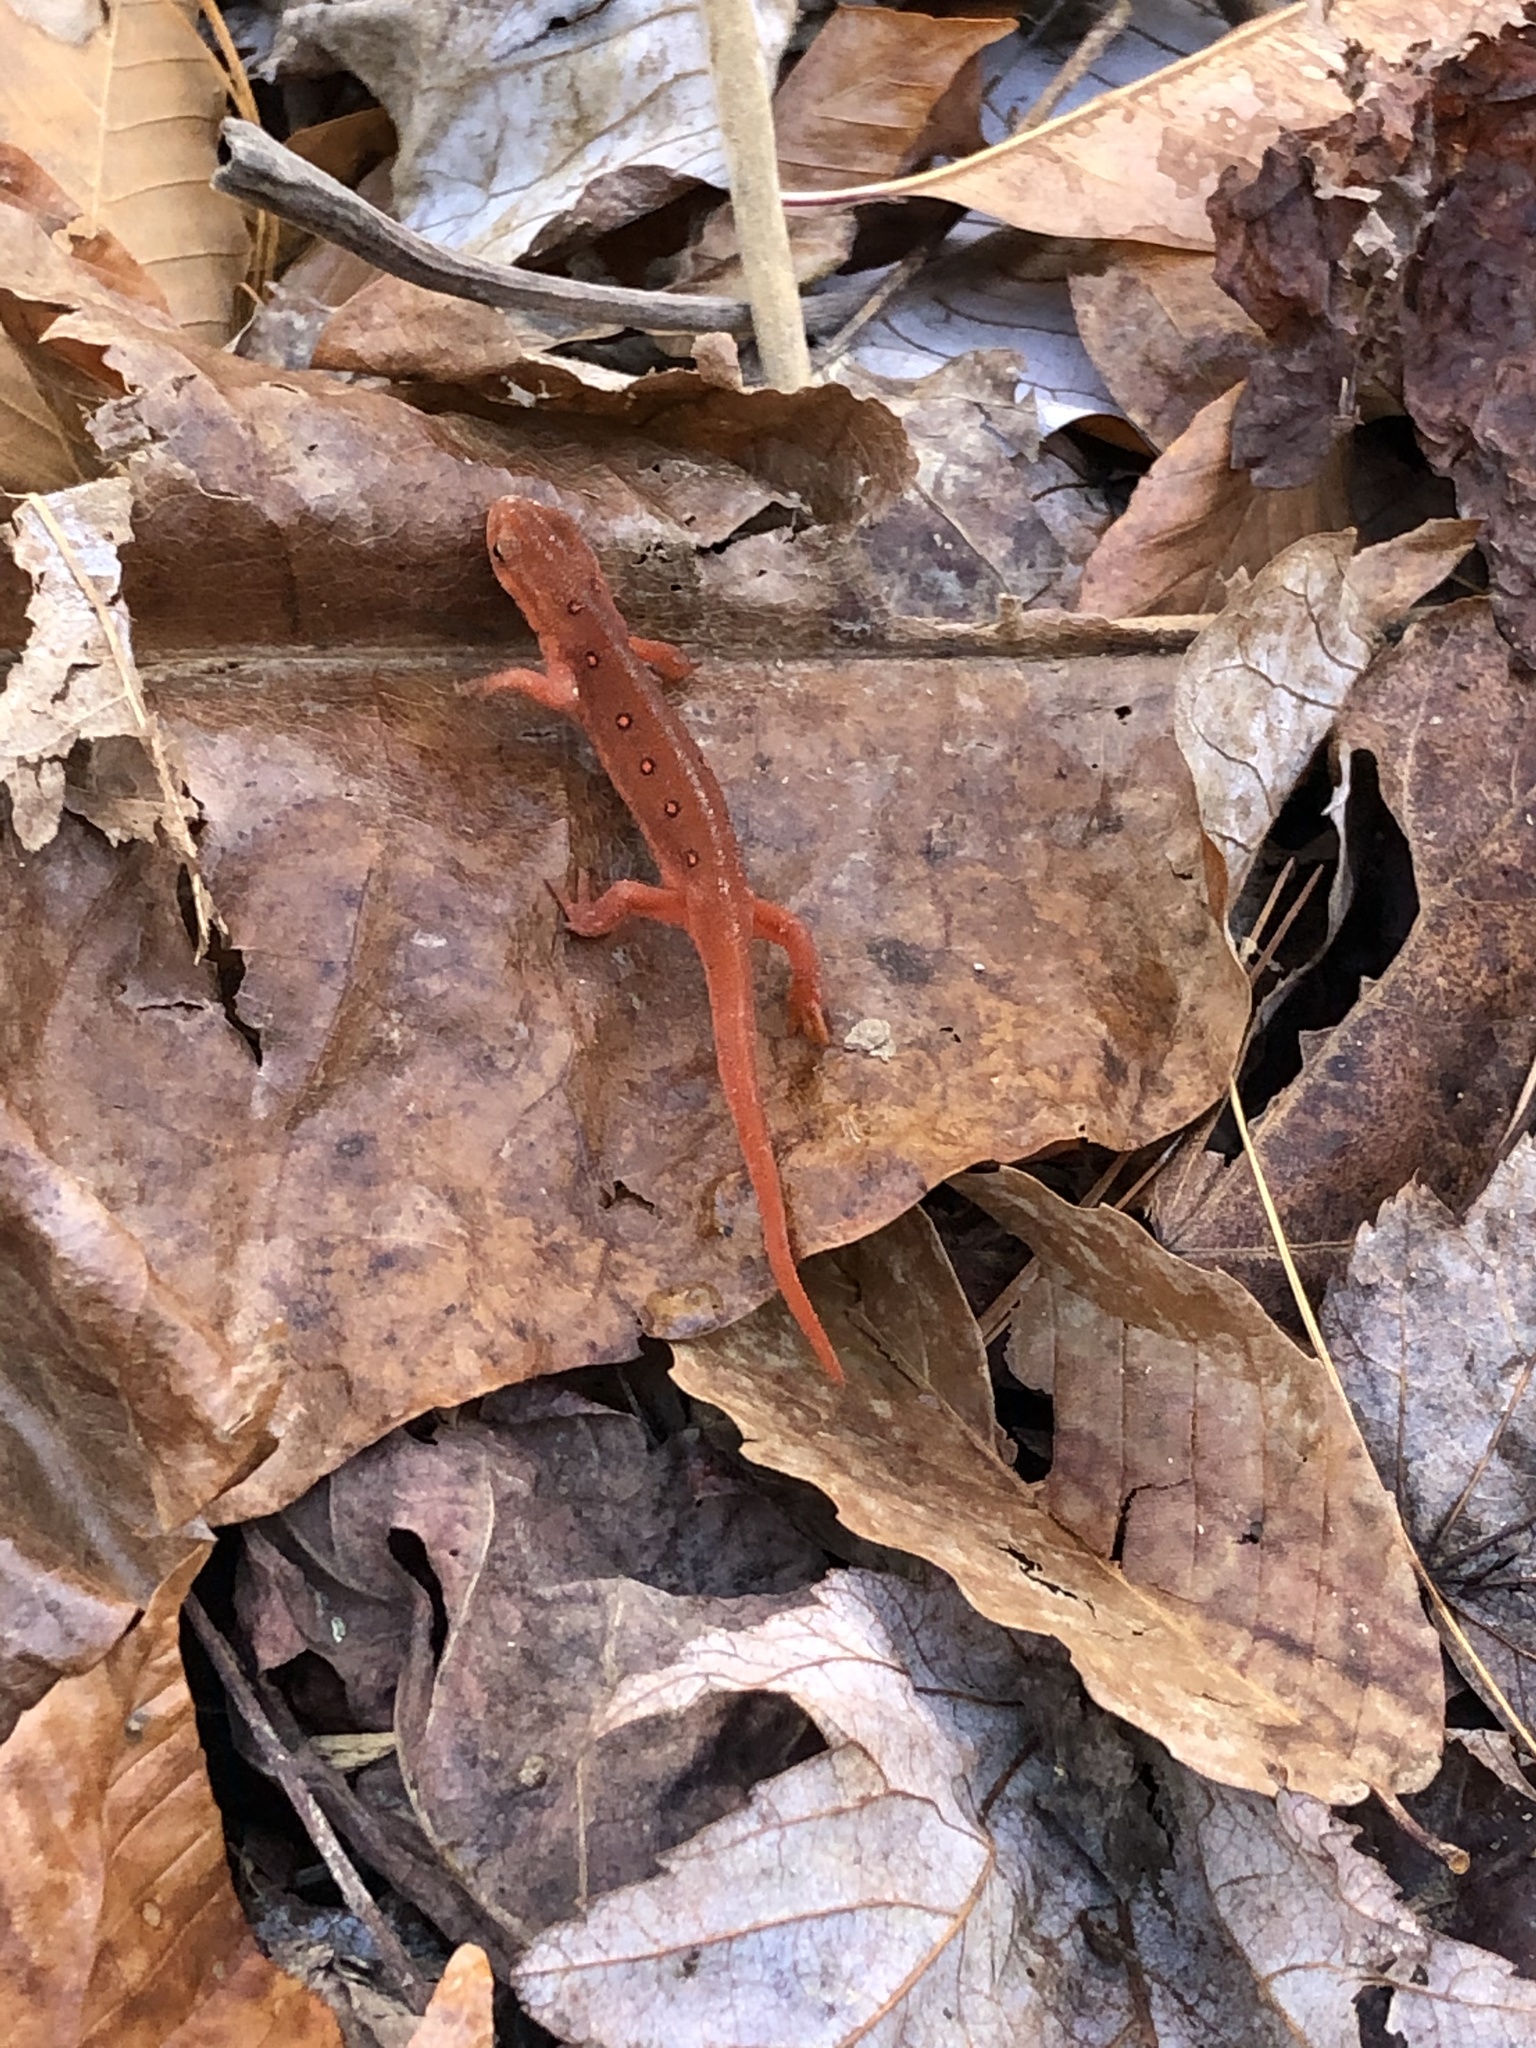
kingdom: Animalia
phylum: Chordata
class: Amphibia
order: Caudata
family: Salamandridae
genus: Notophthalmus
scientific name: Notophthalmus viridescens
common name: Eastern newt
